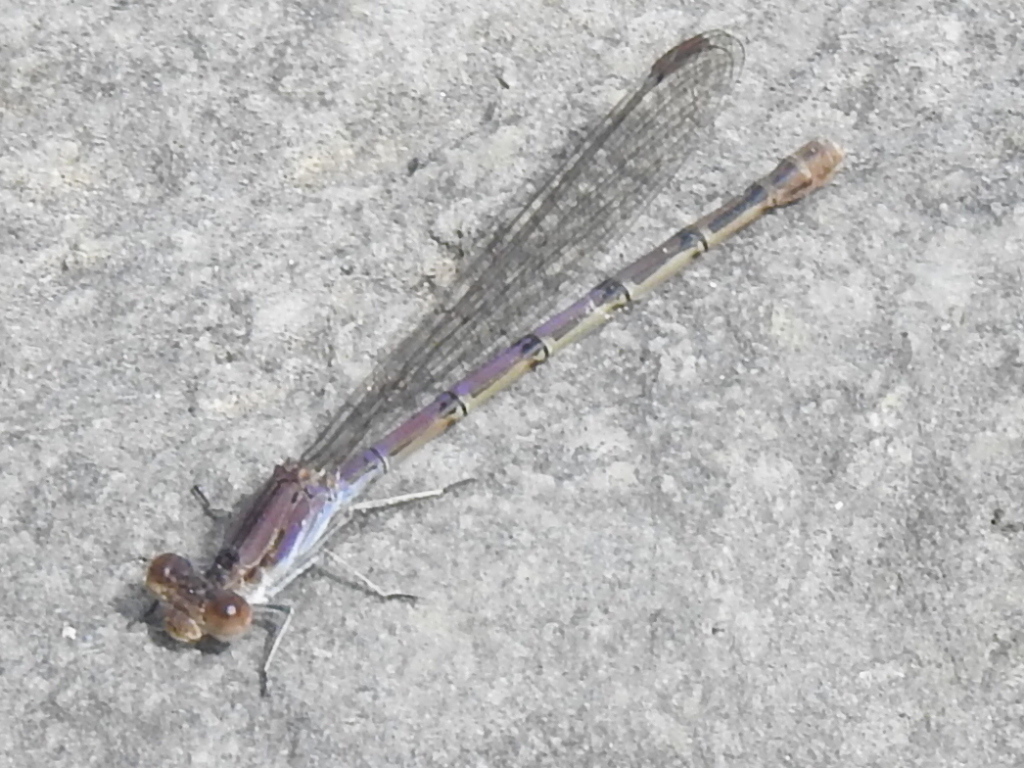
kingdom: Animalia
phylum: Arthropoda
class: Insecta
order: Odonata
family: Coenagrionidae
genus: Argia
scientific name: Argia fumipennis
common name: Variable dancer
